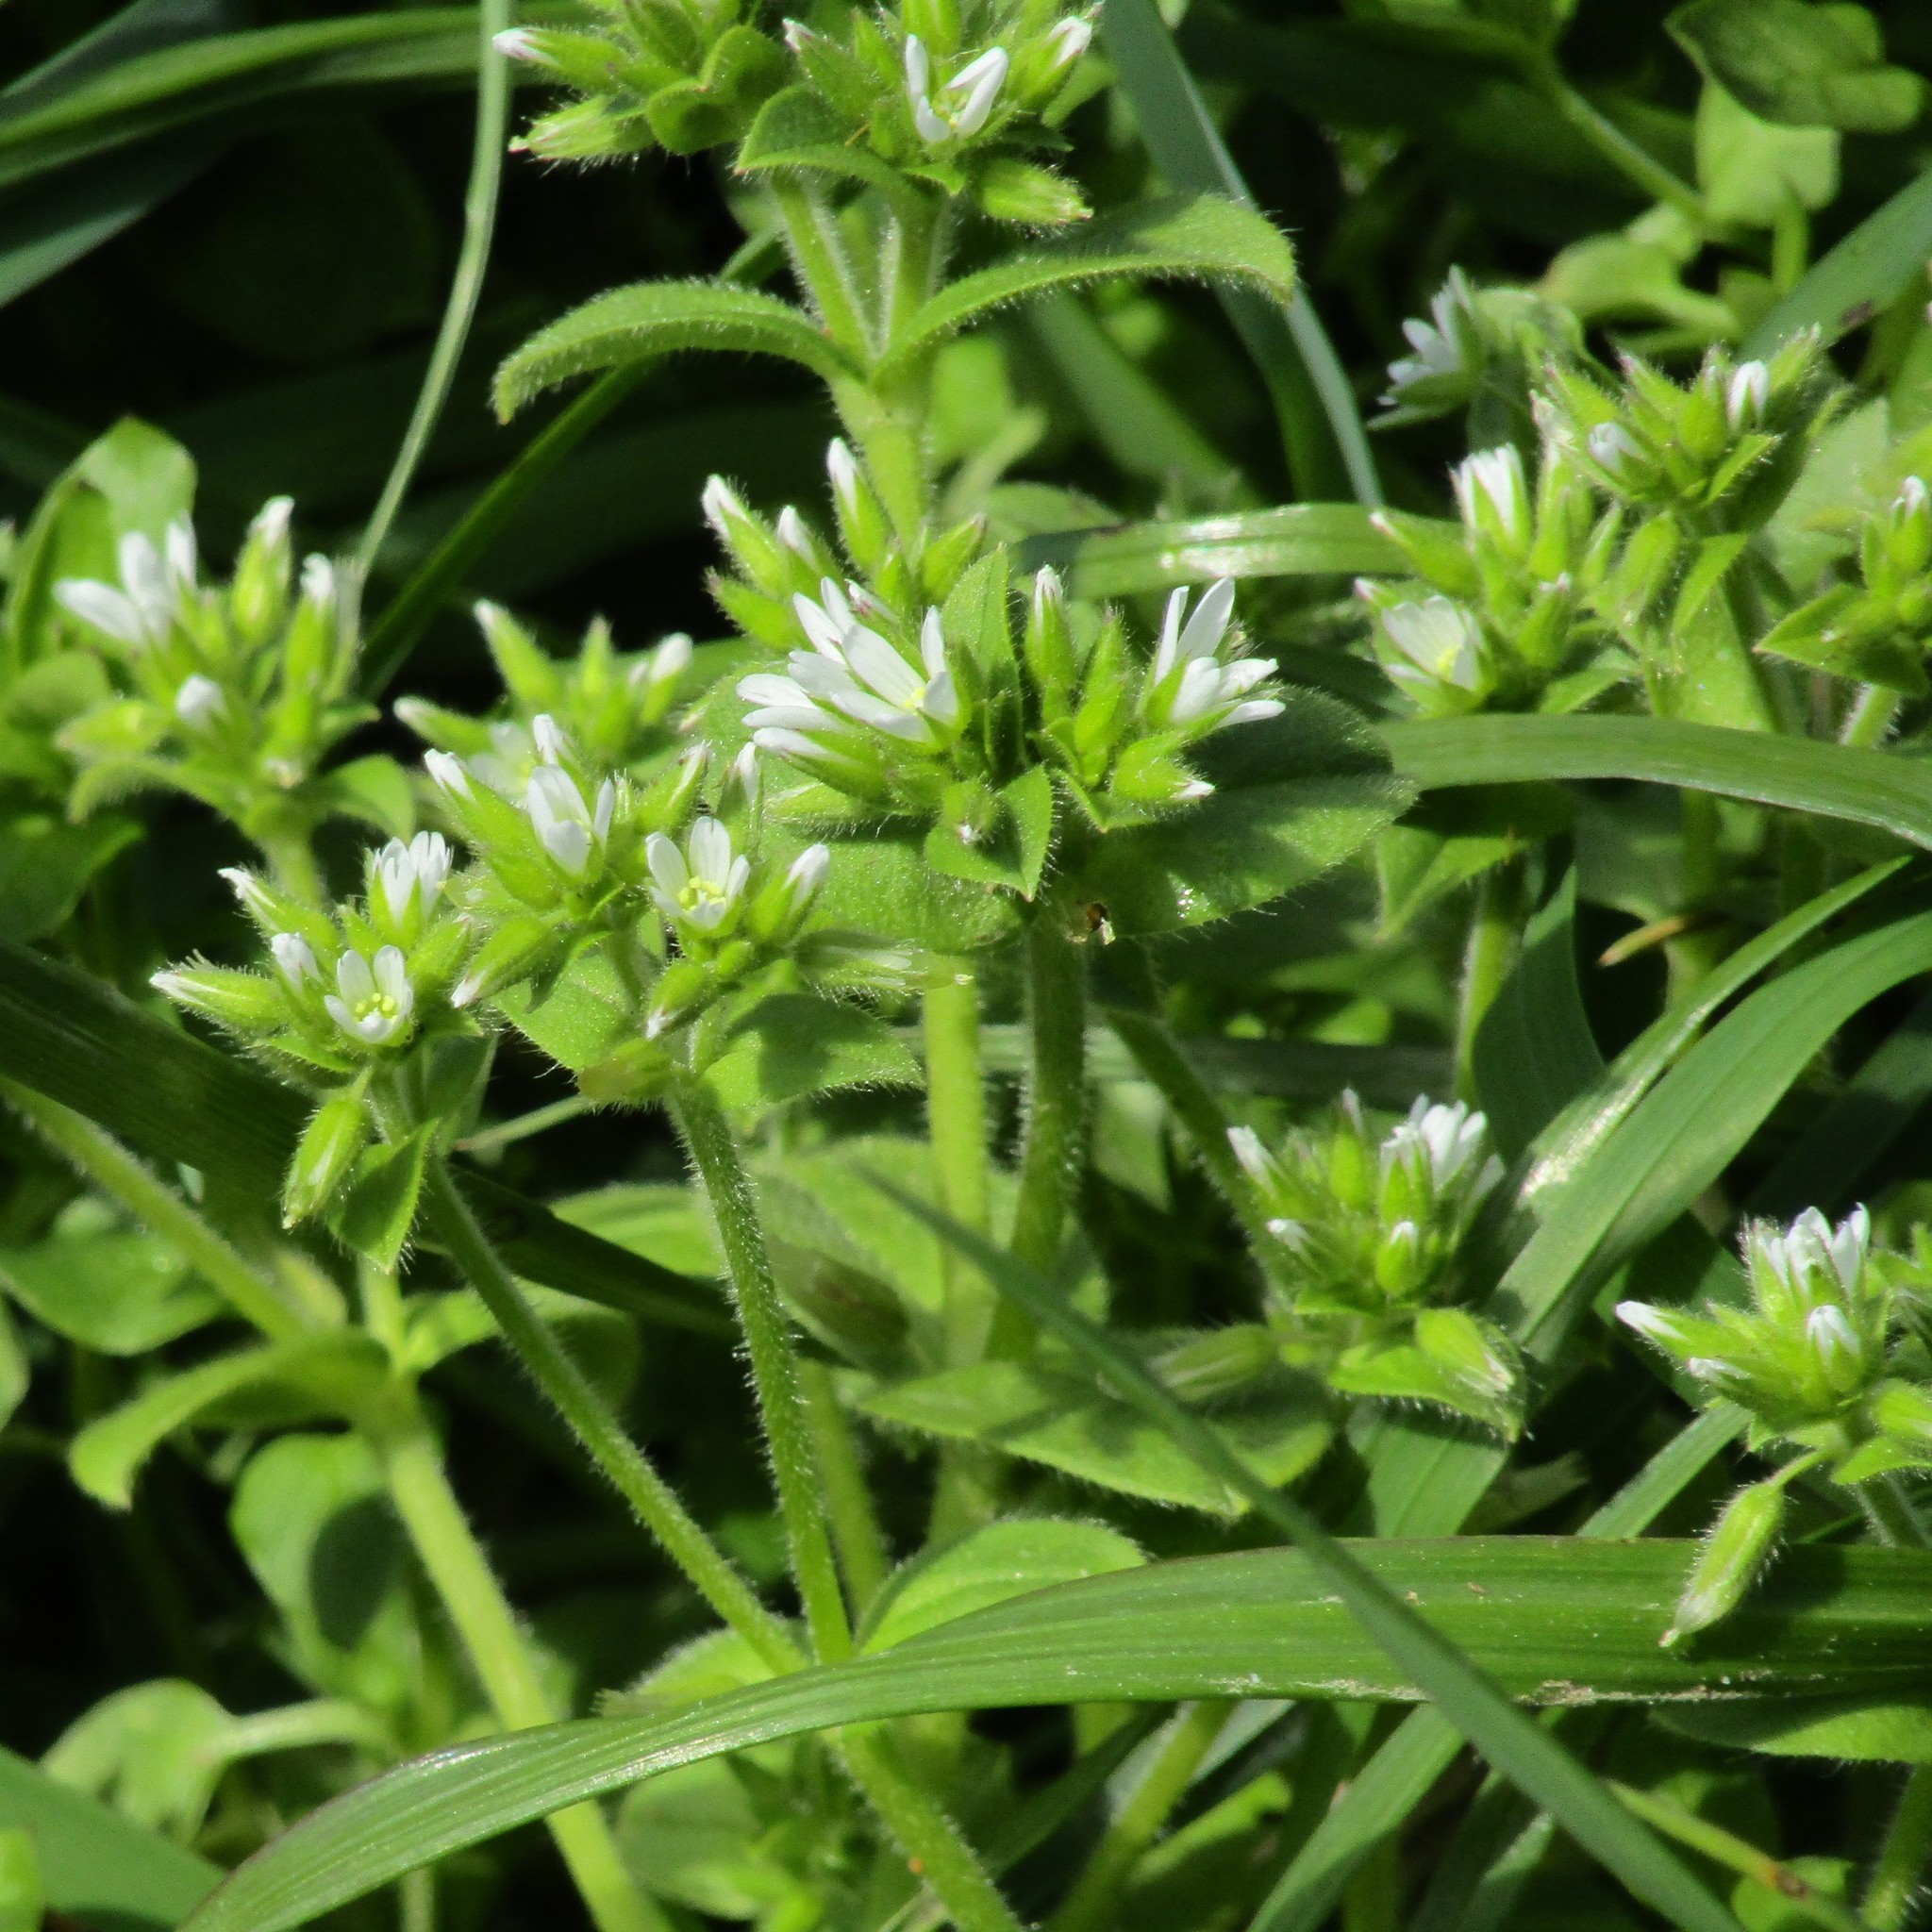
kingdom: Plantae
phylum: Tracheophyta
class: Magnoliopsida
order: Caryophyllales
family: Caryophyllaceae
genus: Cerastium
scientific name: Cerastium glomeratum
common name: Sticky chickweed
